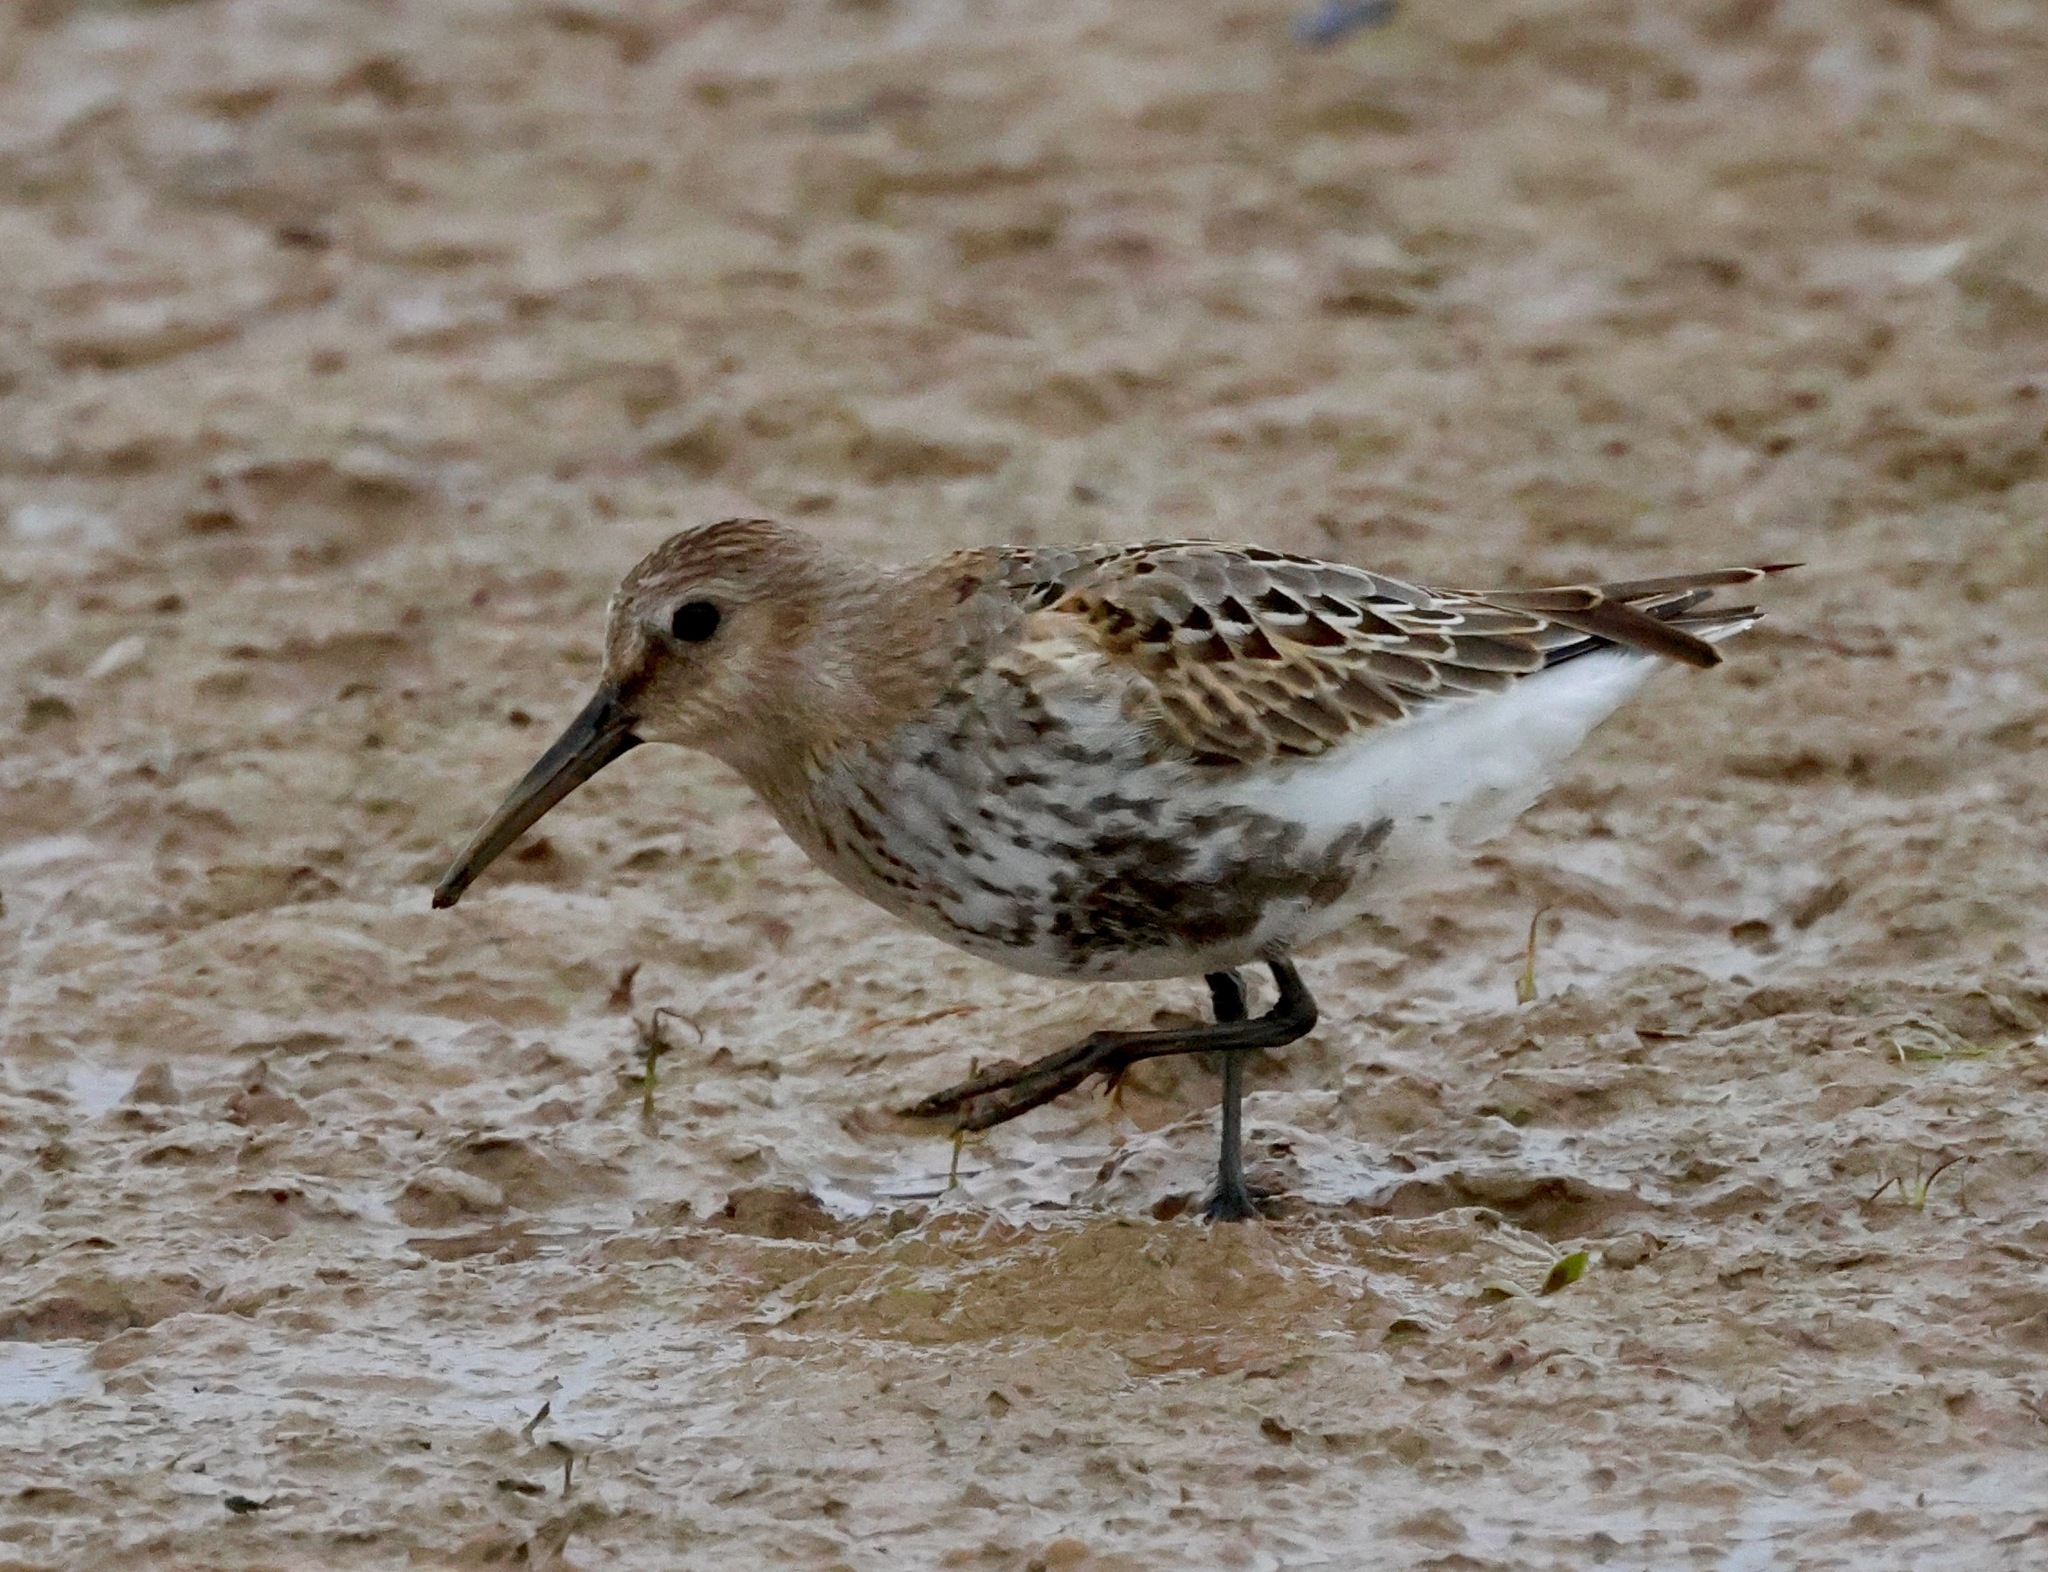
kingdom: Animalia
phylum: Chordata
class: Aves
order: Charadriiformes
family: Scolopacidae
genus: Calidris
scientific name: Calidris alpina
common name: Dunlin
